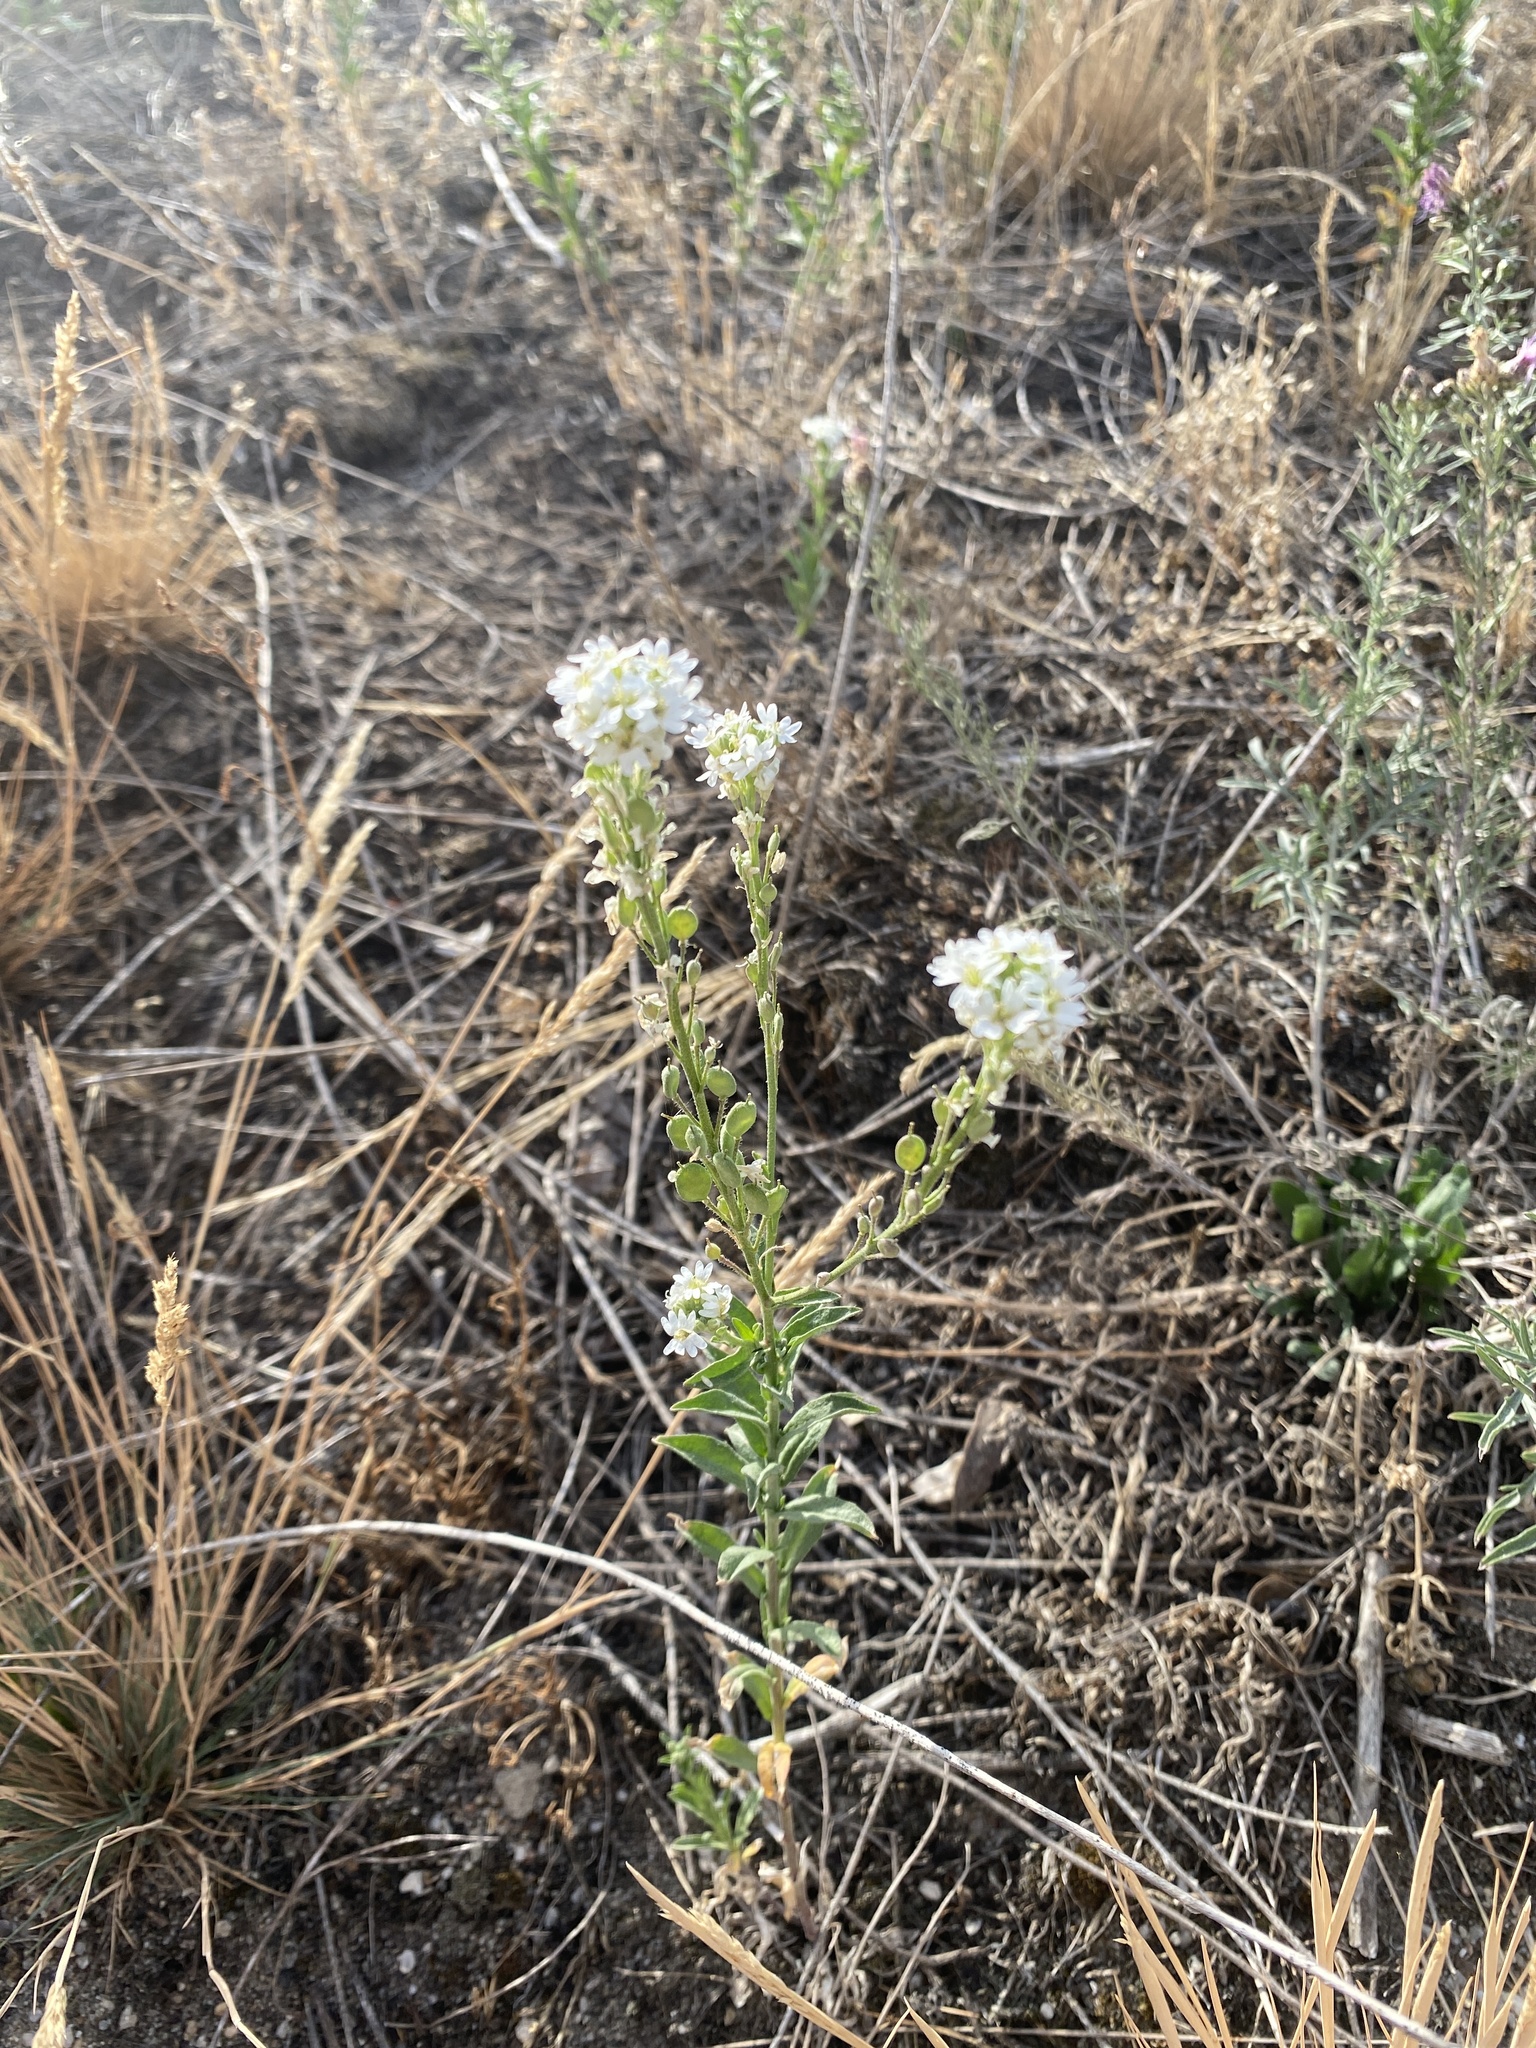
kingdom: Plantae
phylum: Tracheophyta
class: Magnoliopsida
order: Brassicales
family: Brassicaceae
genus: Berteroa
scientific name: Berteroa incana
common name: Hoary alison
